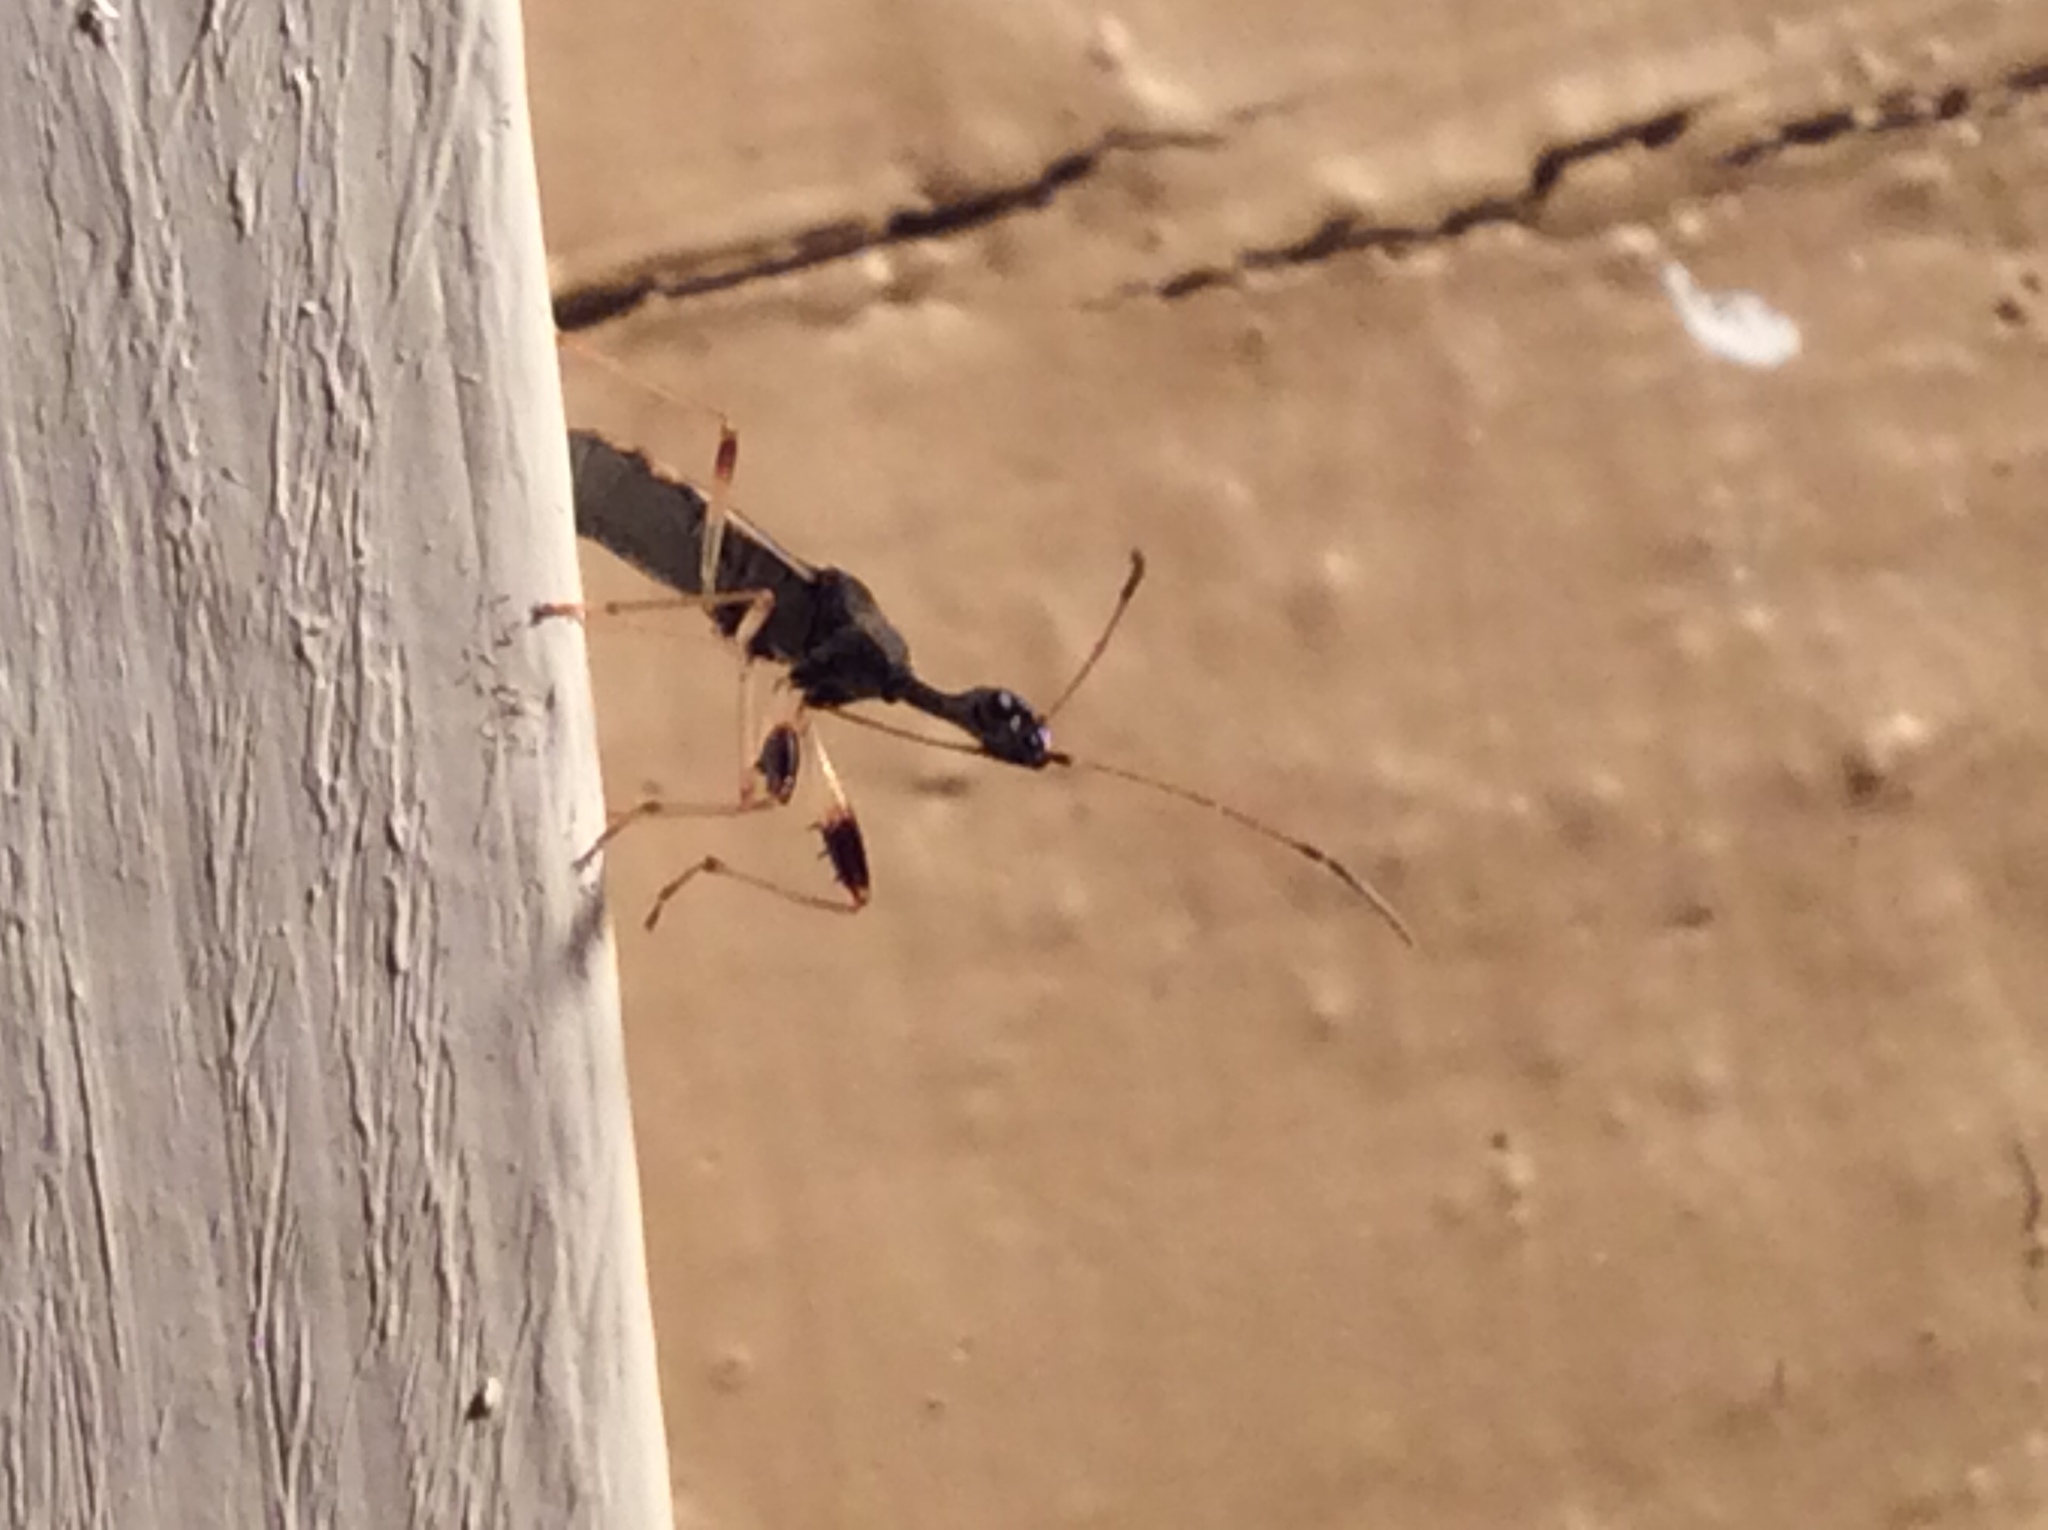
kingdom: Animalia
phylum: Arthropoda
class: Insecta
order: Hemiptera
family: Rhyparochromidae
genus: Myodocha
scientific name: Myodocha serripes
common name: Long-necked seed bug
